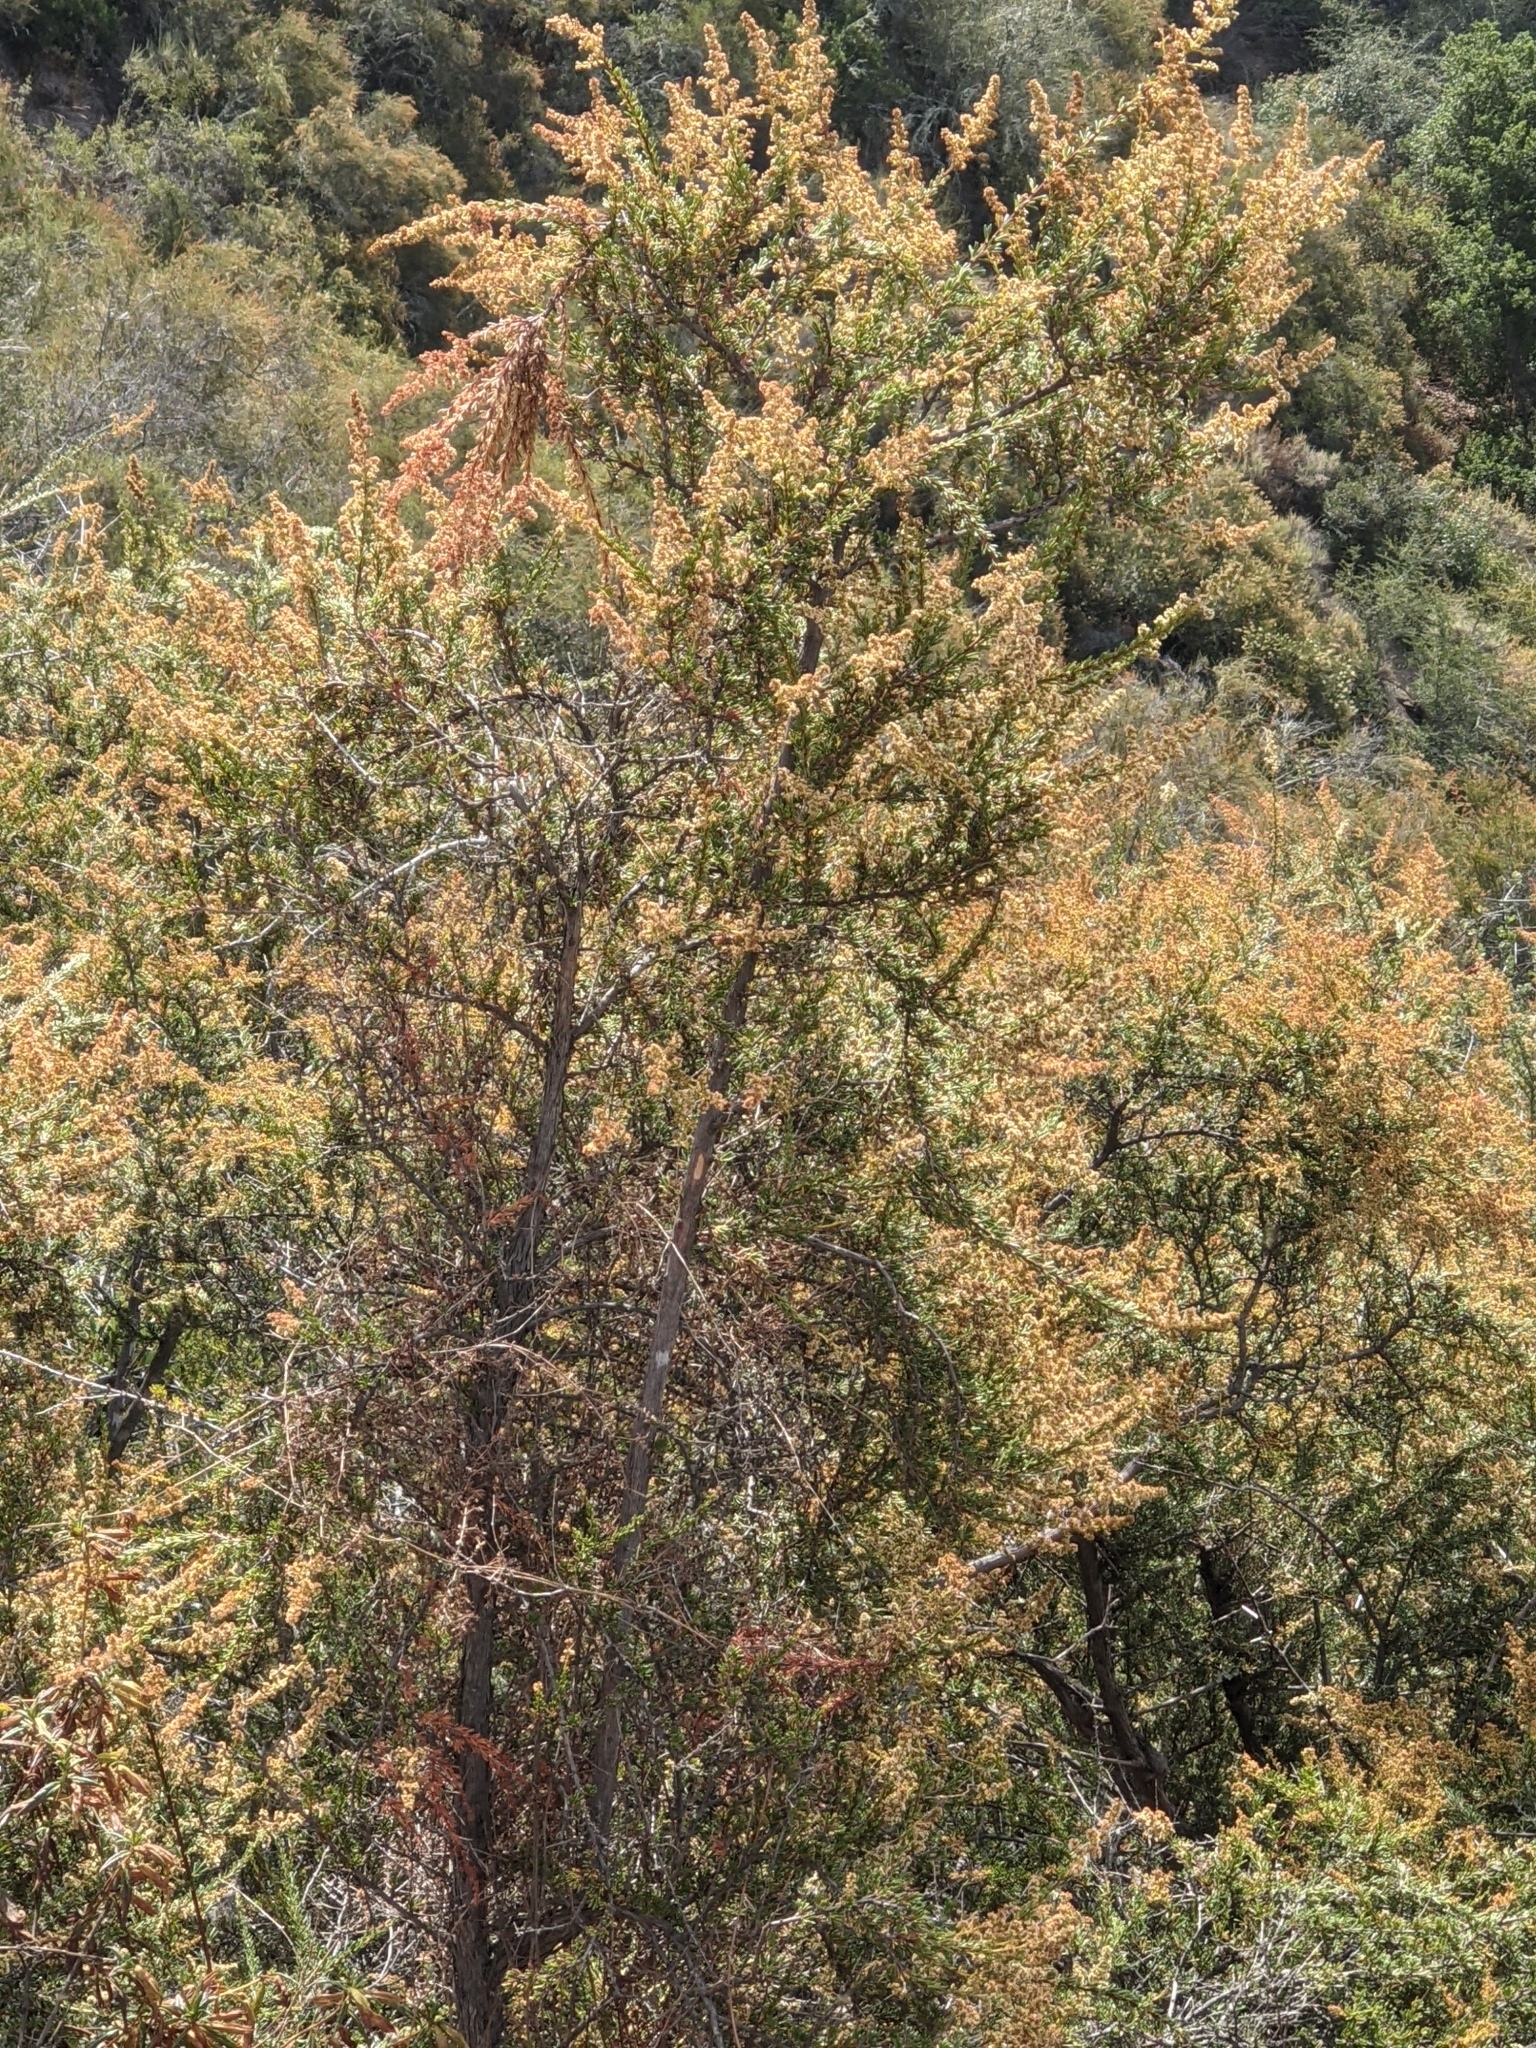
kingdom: Plantae
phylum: Tracheophyta
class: Magnoliopsida
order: Rosales
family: Rosaceae
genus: Adenostoma
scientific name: Adenostoma fasciculatum
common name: Chamise
